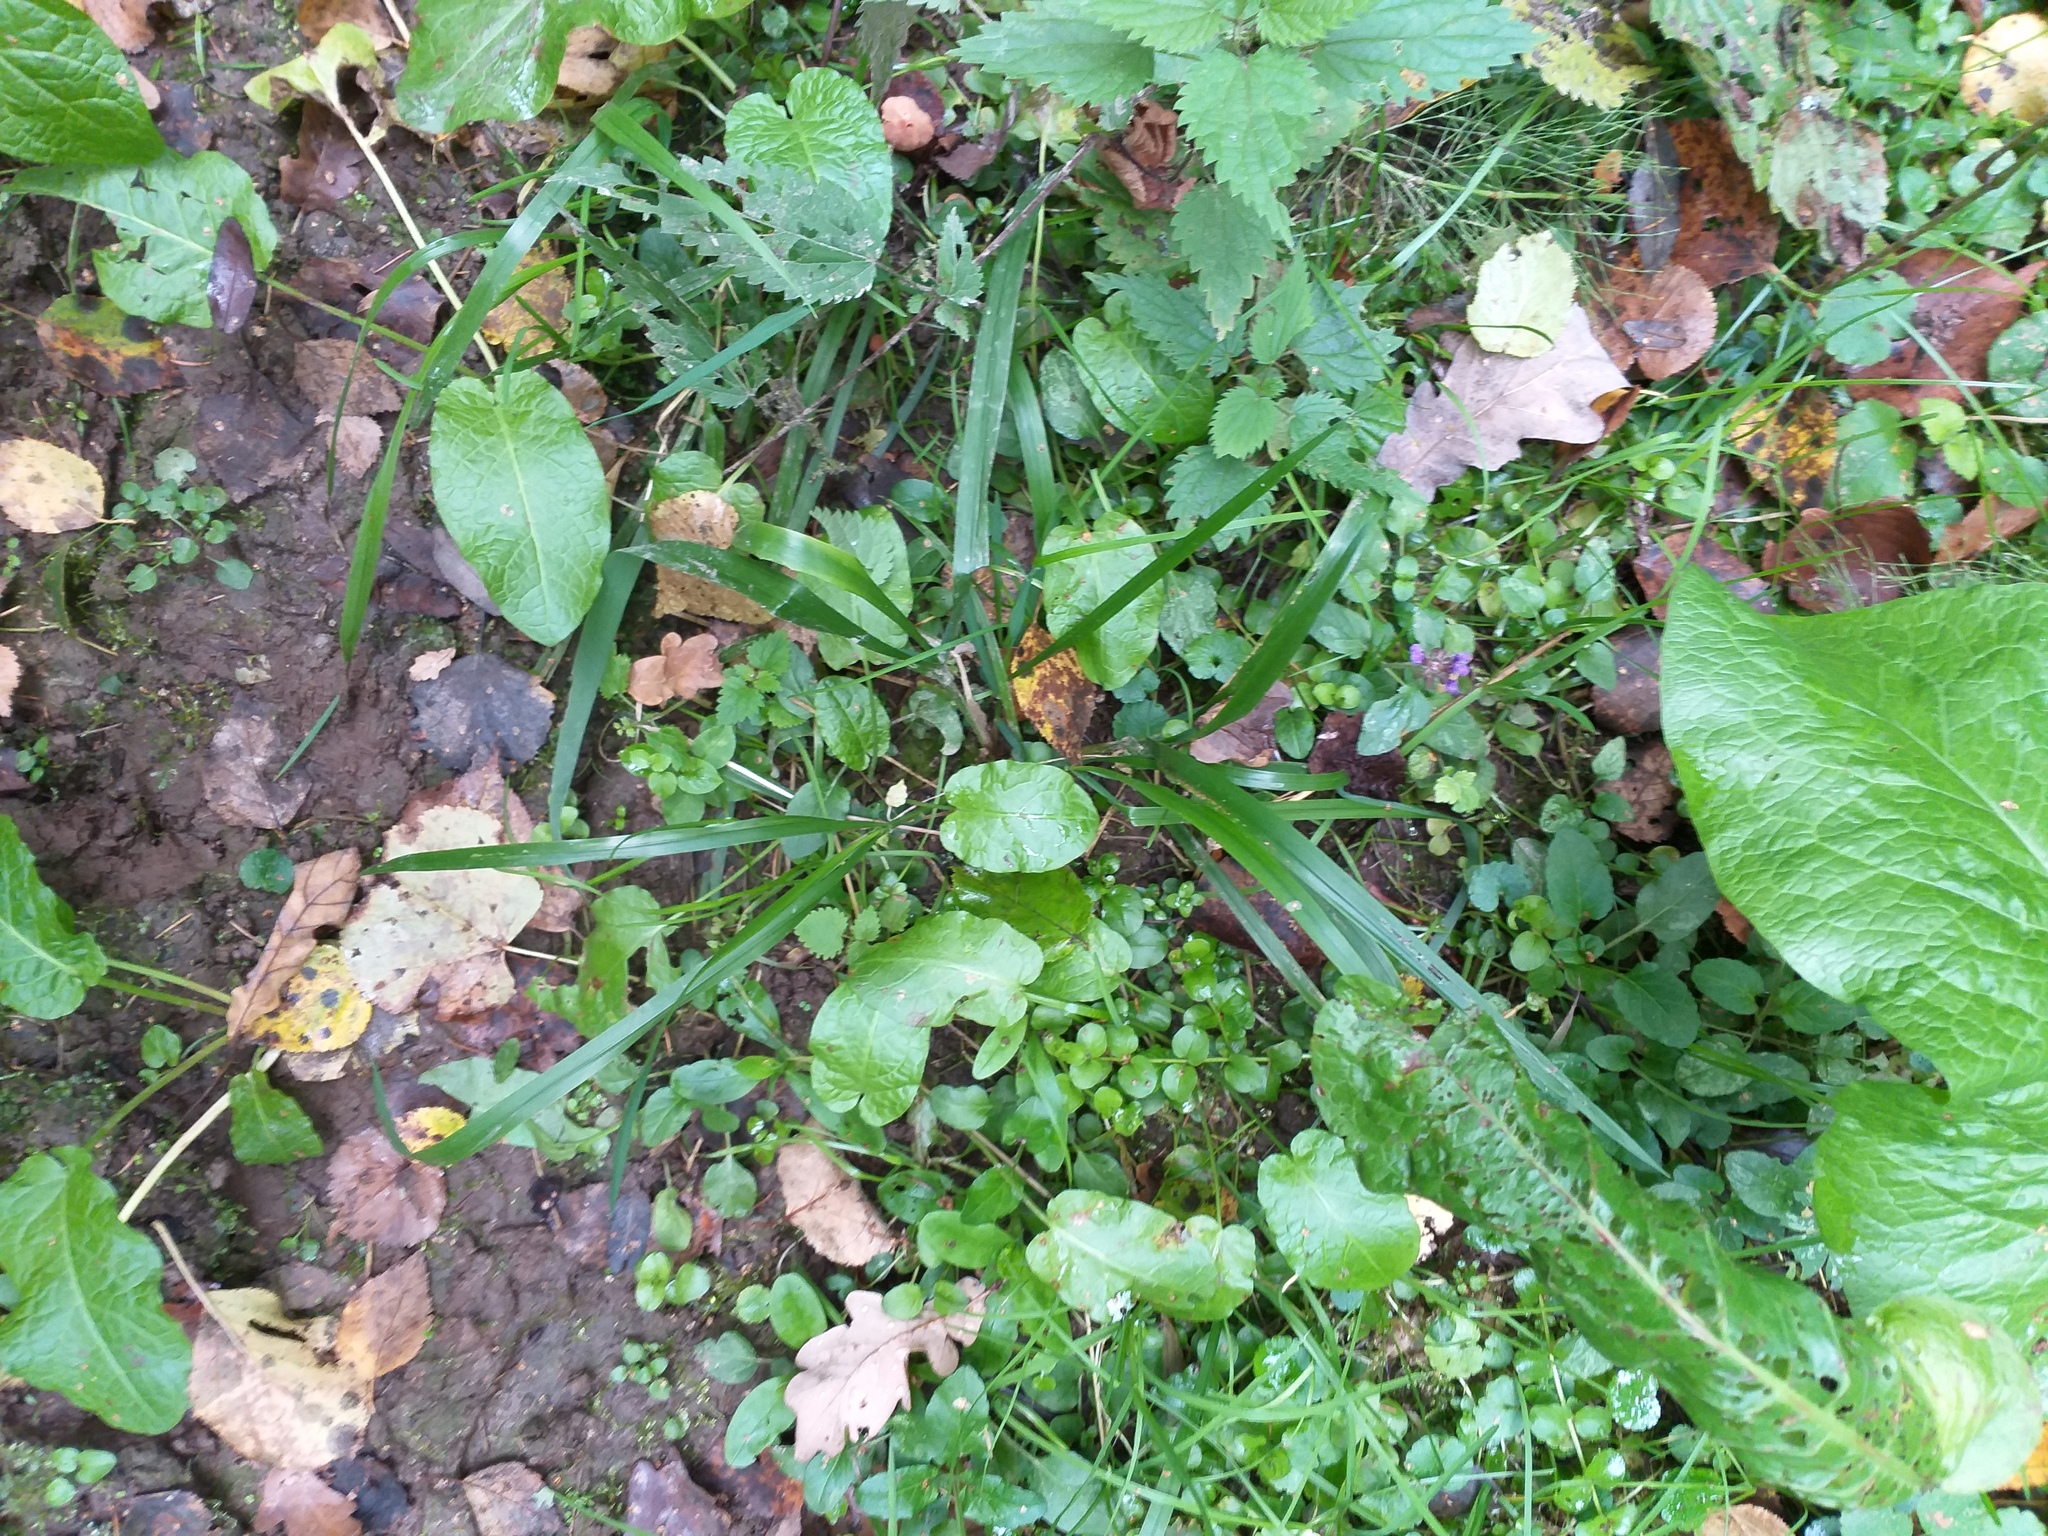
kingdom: Plantae
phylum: Tracheophyta
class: Liliopsida
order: Poales
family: Poaceae
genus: Lolium
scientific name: Lolium giganteum
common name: Giant fescue
